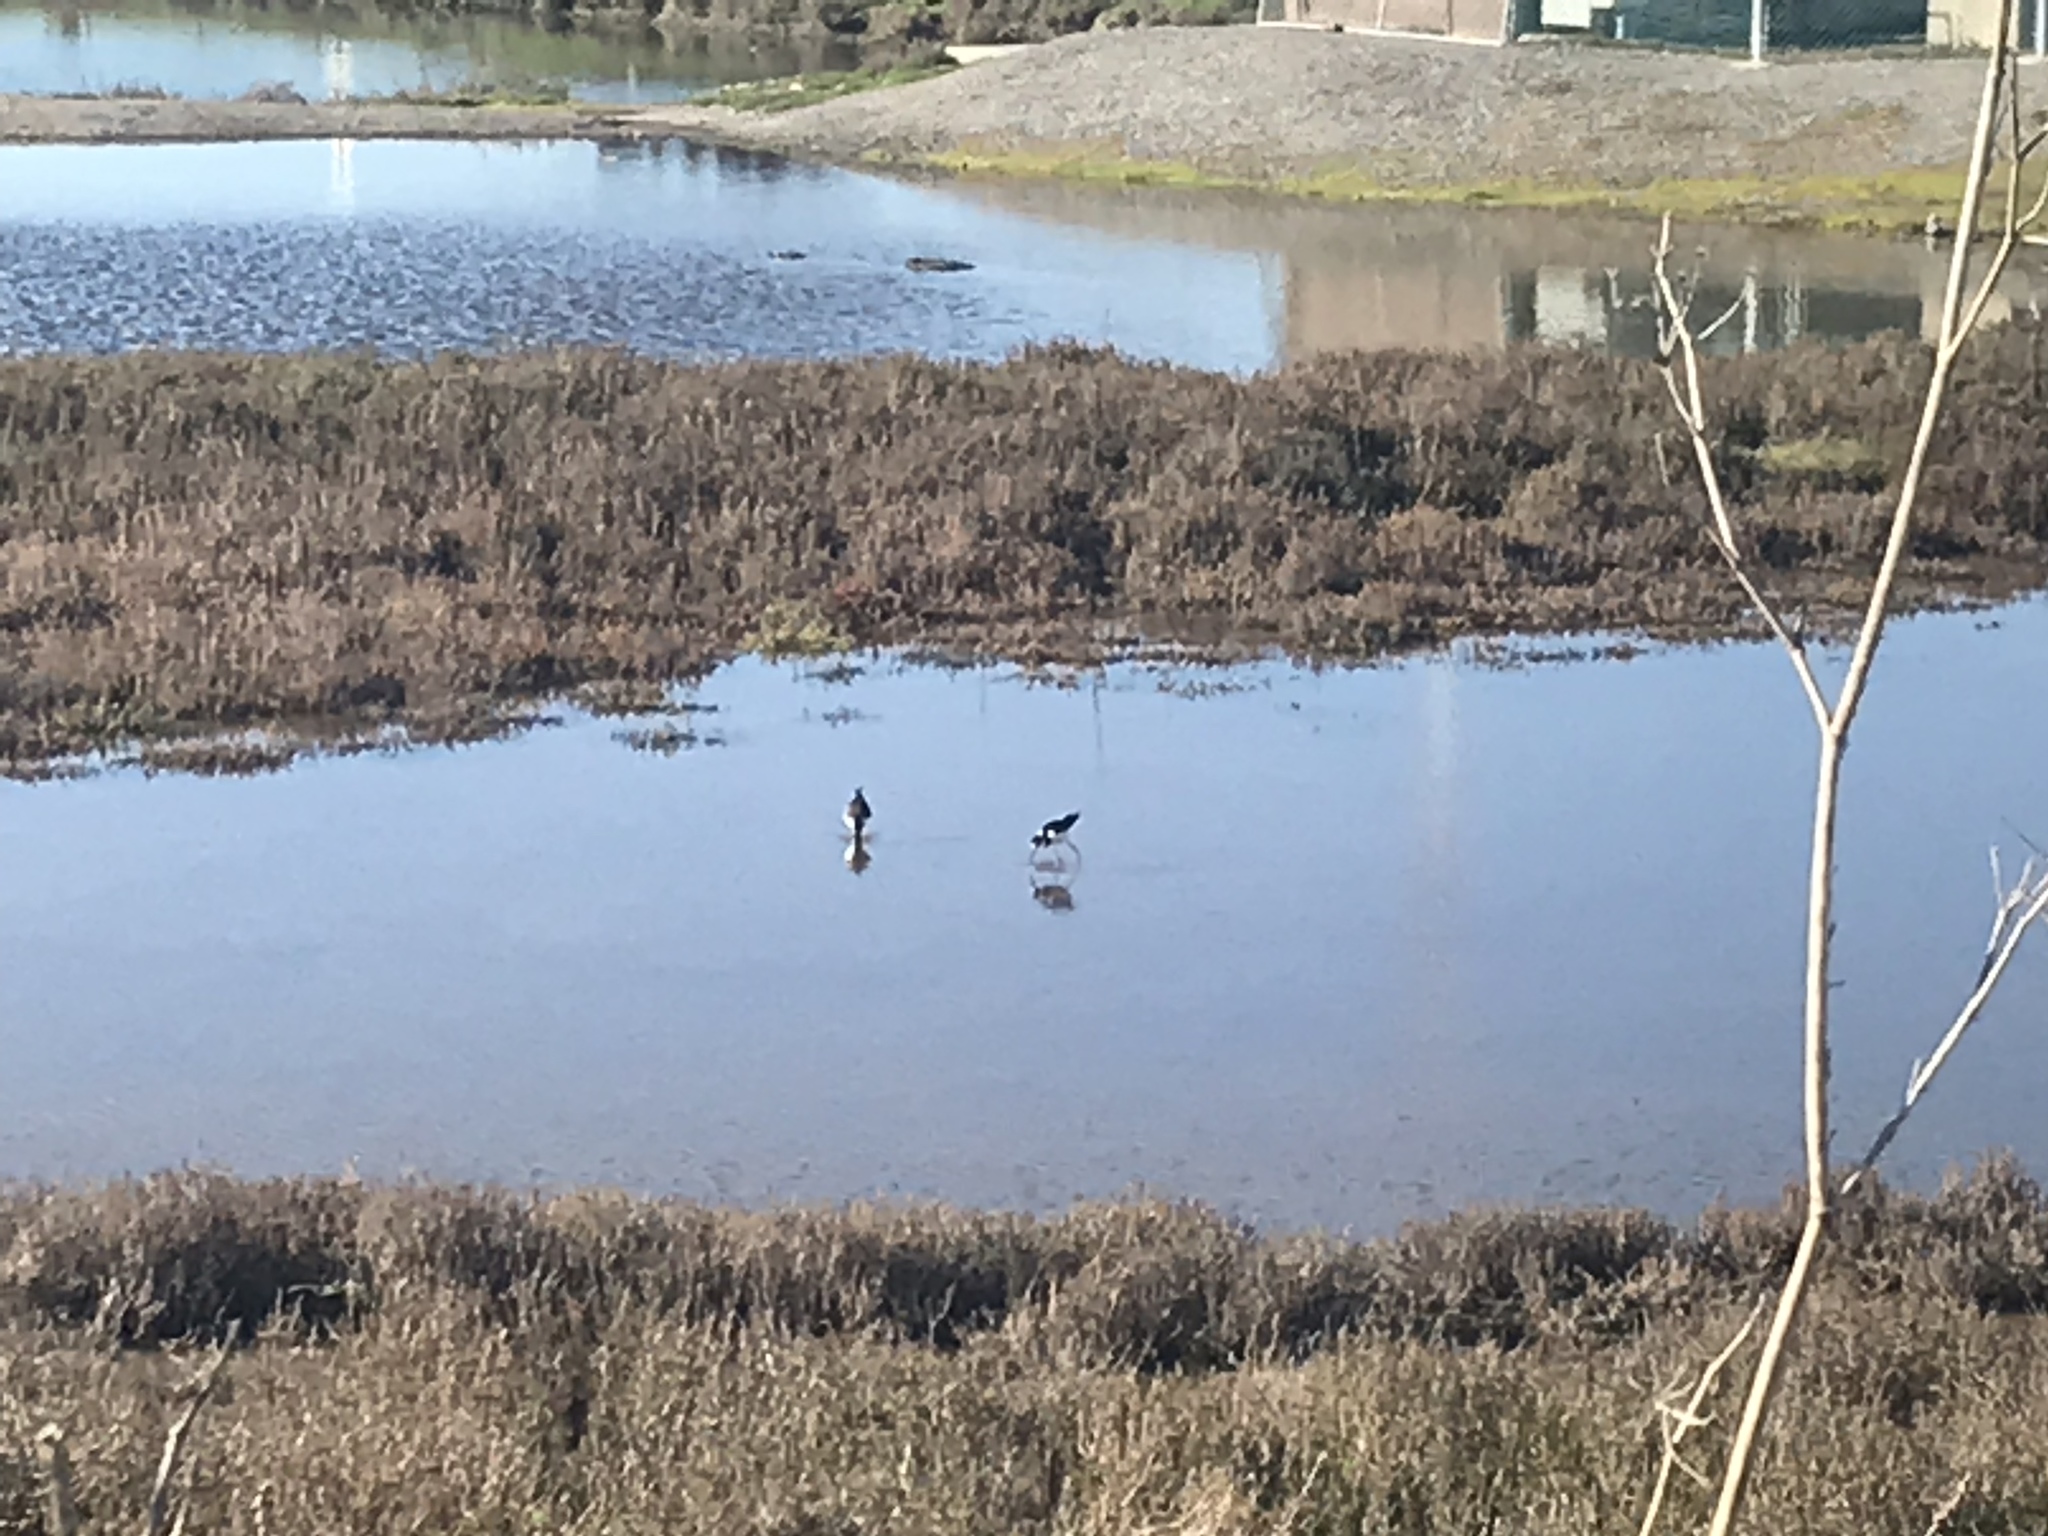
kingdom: Animalia
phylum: Chordata
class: Aves
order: Charadriiformes
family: Recurvirostridae
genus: Himantopus
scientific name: Himantopus mexicanus
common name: Black-necked stilt
